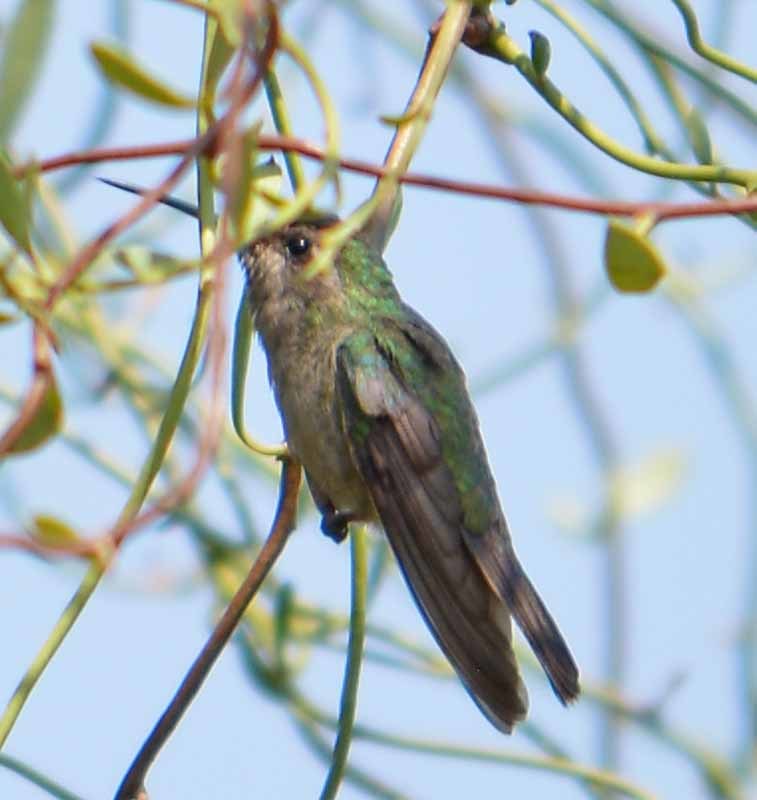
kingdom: Animalia
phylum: Chordata
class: Aves
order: Apodiformes
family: Trochilidae
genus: Cynanthus
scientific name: Cynanthus latirostris
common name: Broad-billed hummingbird
